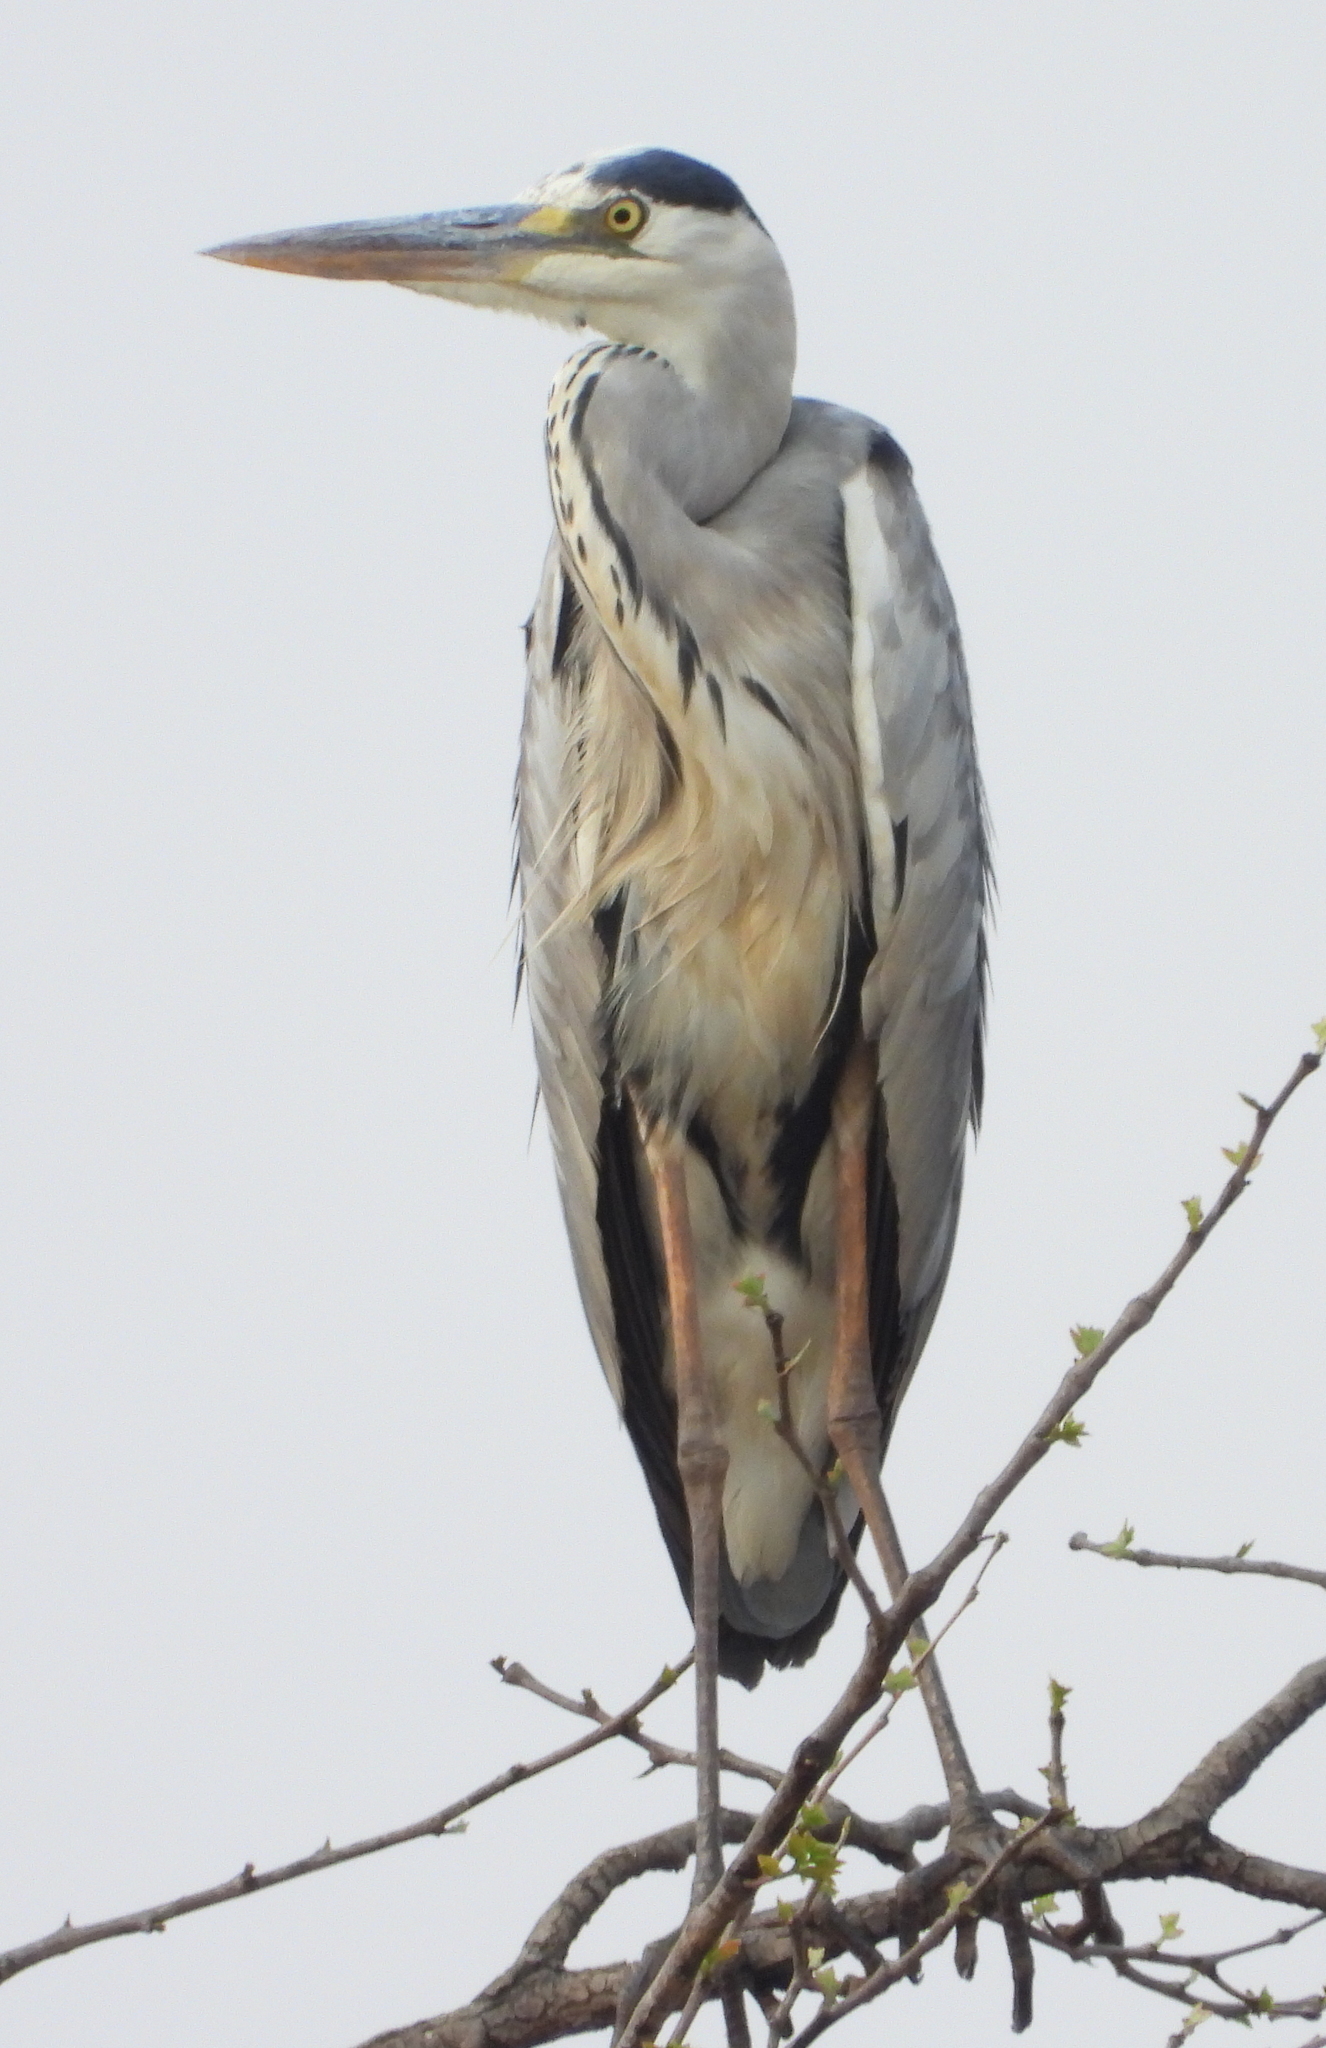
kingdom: Animalia
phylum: Chordata
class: Aves
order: Pelecaniformes
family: Ardeidae
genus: Ardea
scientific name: Ardea cinerea
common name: Grey heron
